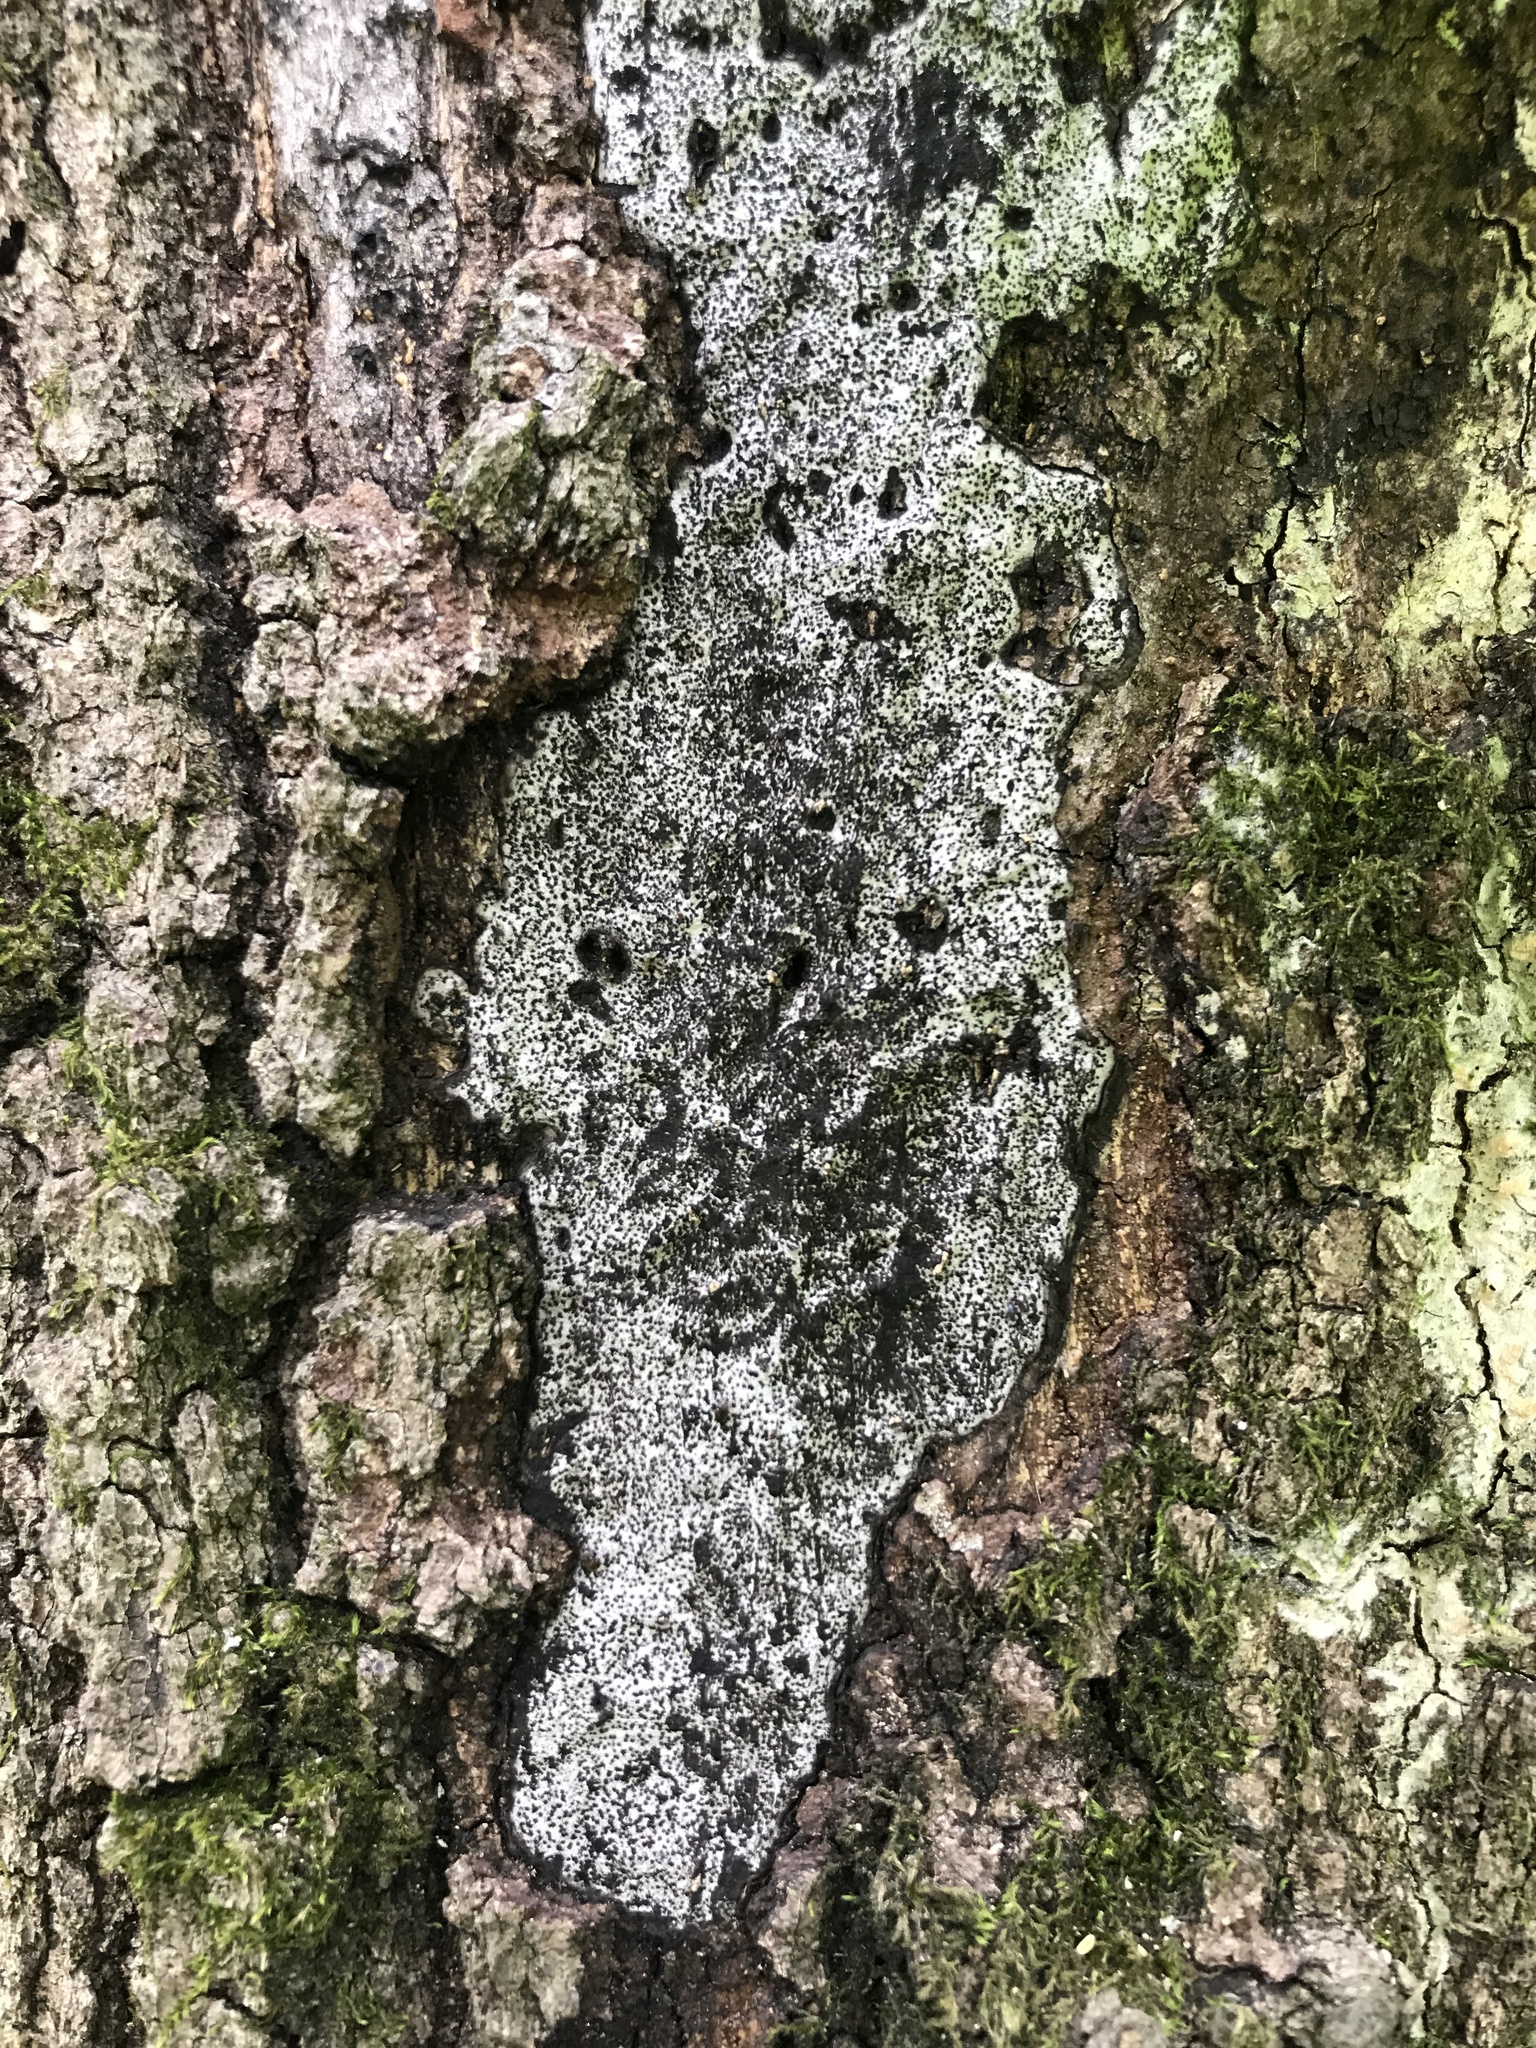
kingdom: Fungi
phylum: Ascomycota
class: Sordariomycetes
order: Xylariales
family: Graphostromataceae
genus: Biscogniauxia
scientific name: Biscogniauxia atropunctata
